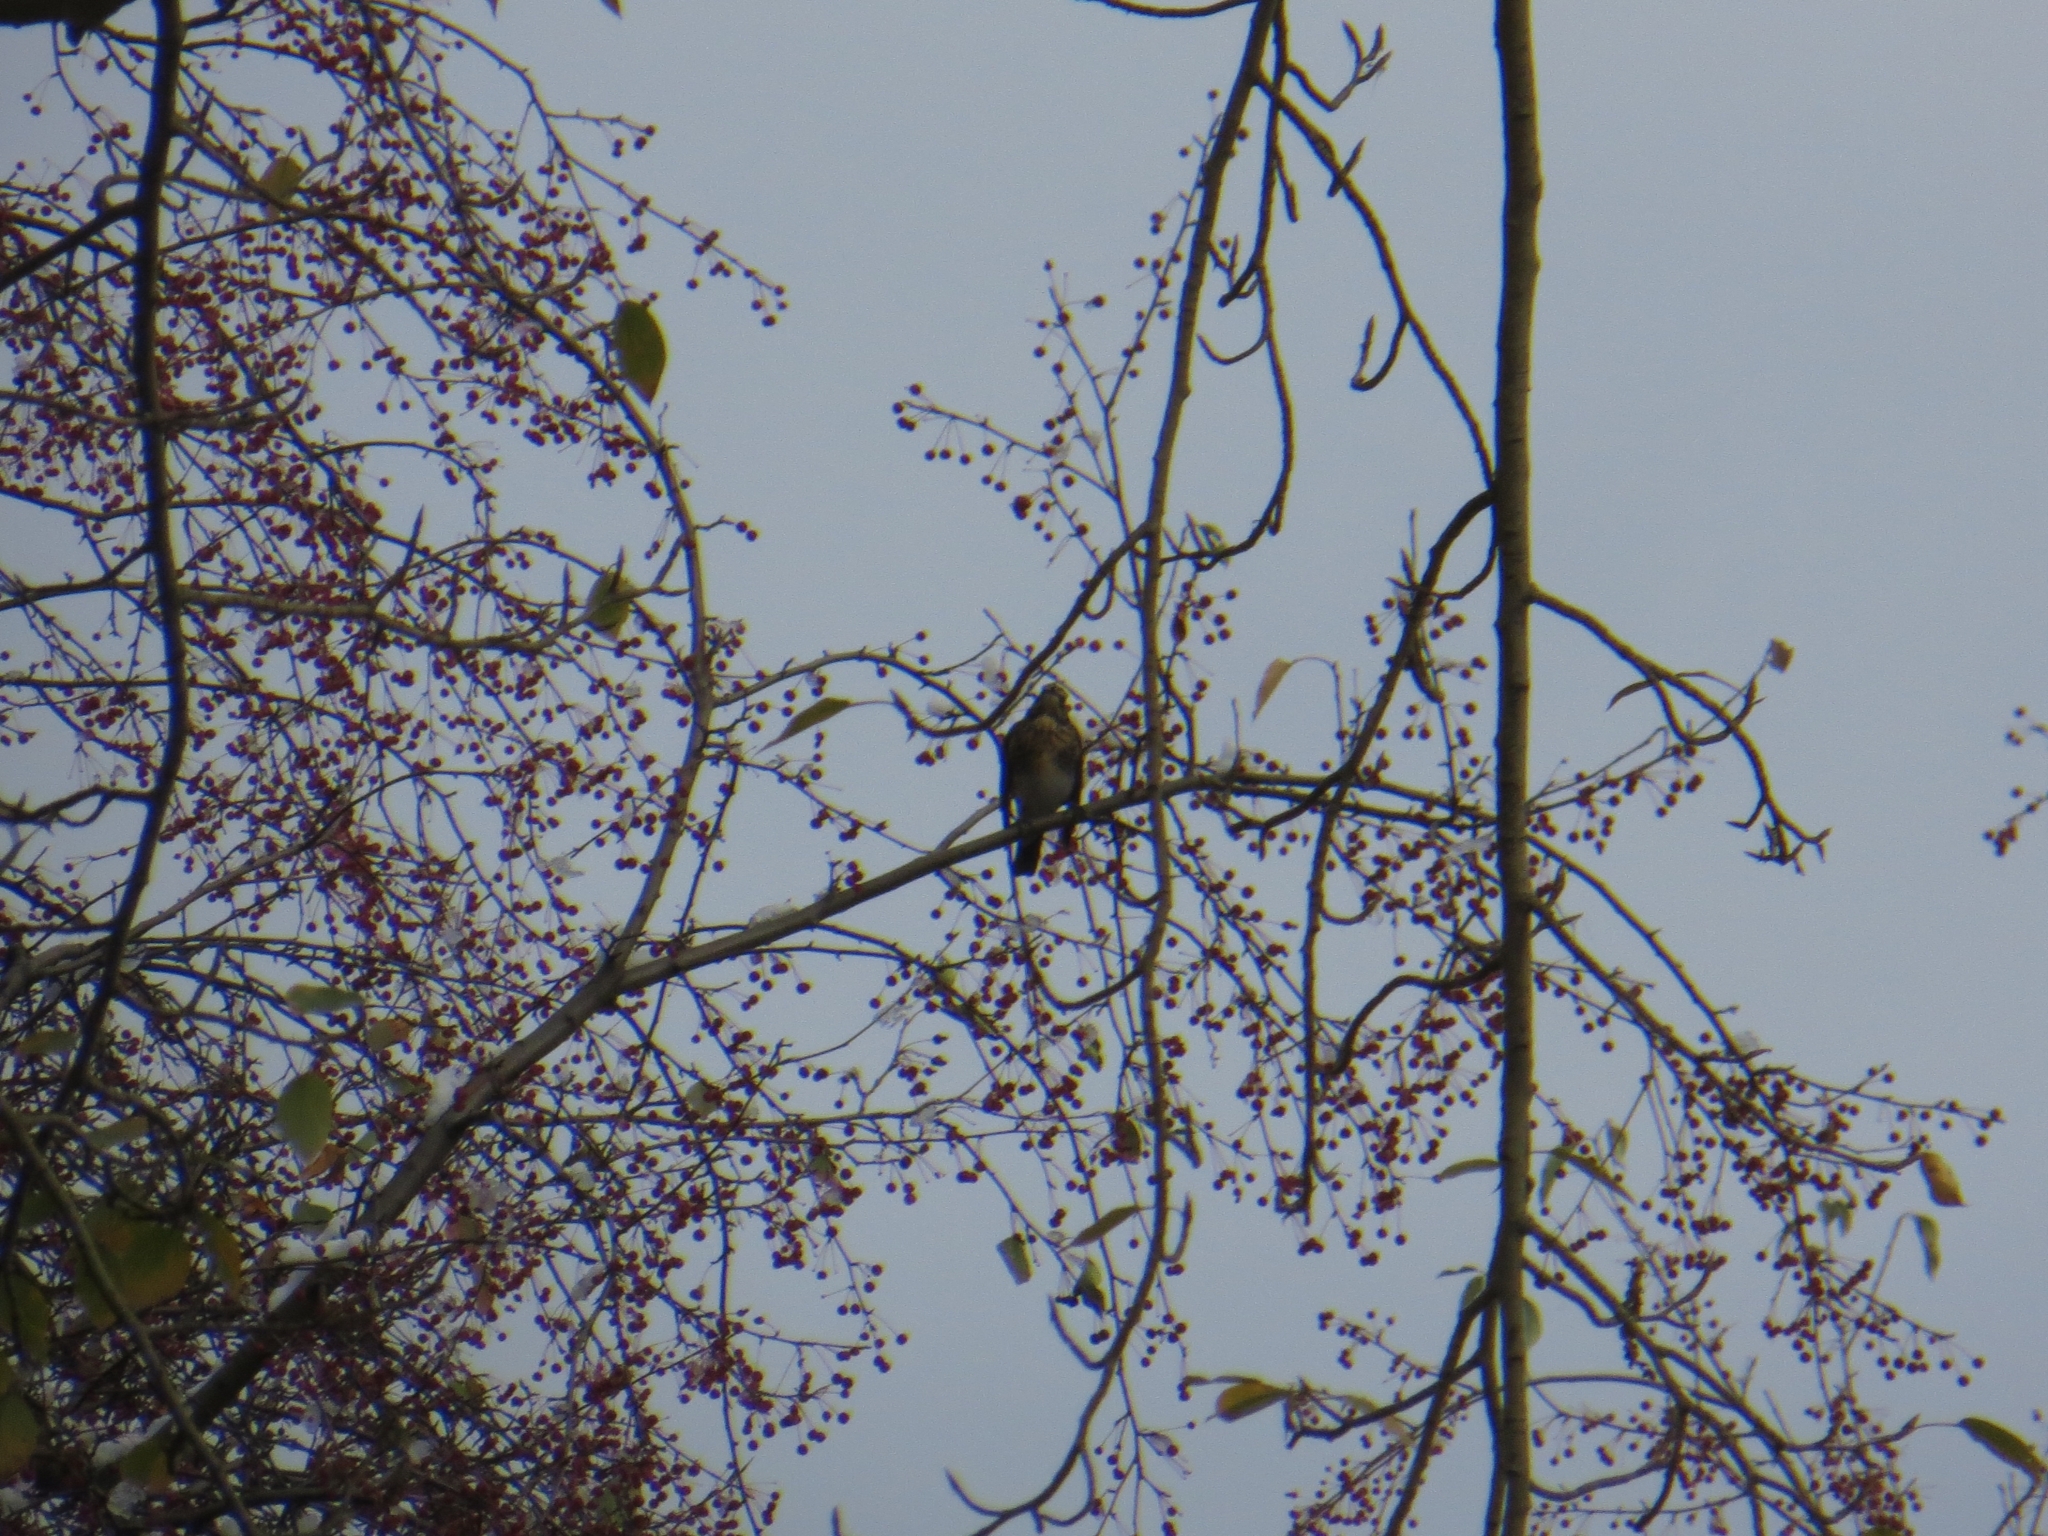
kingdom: Animalia
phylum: Chordata
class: Aves
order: Passeriformes
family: Turdidae
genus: Turdus
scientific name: Turdus pilaris
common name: Fieldfare
